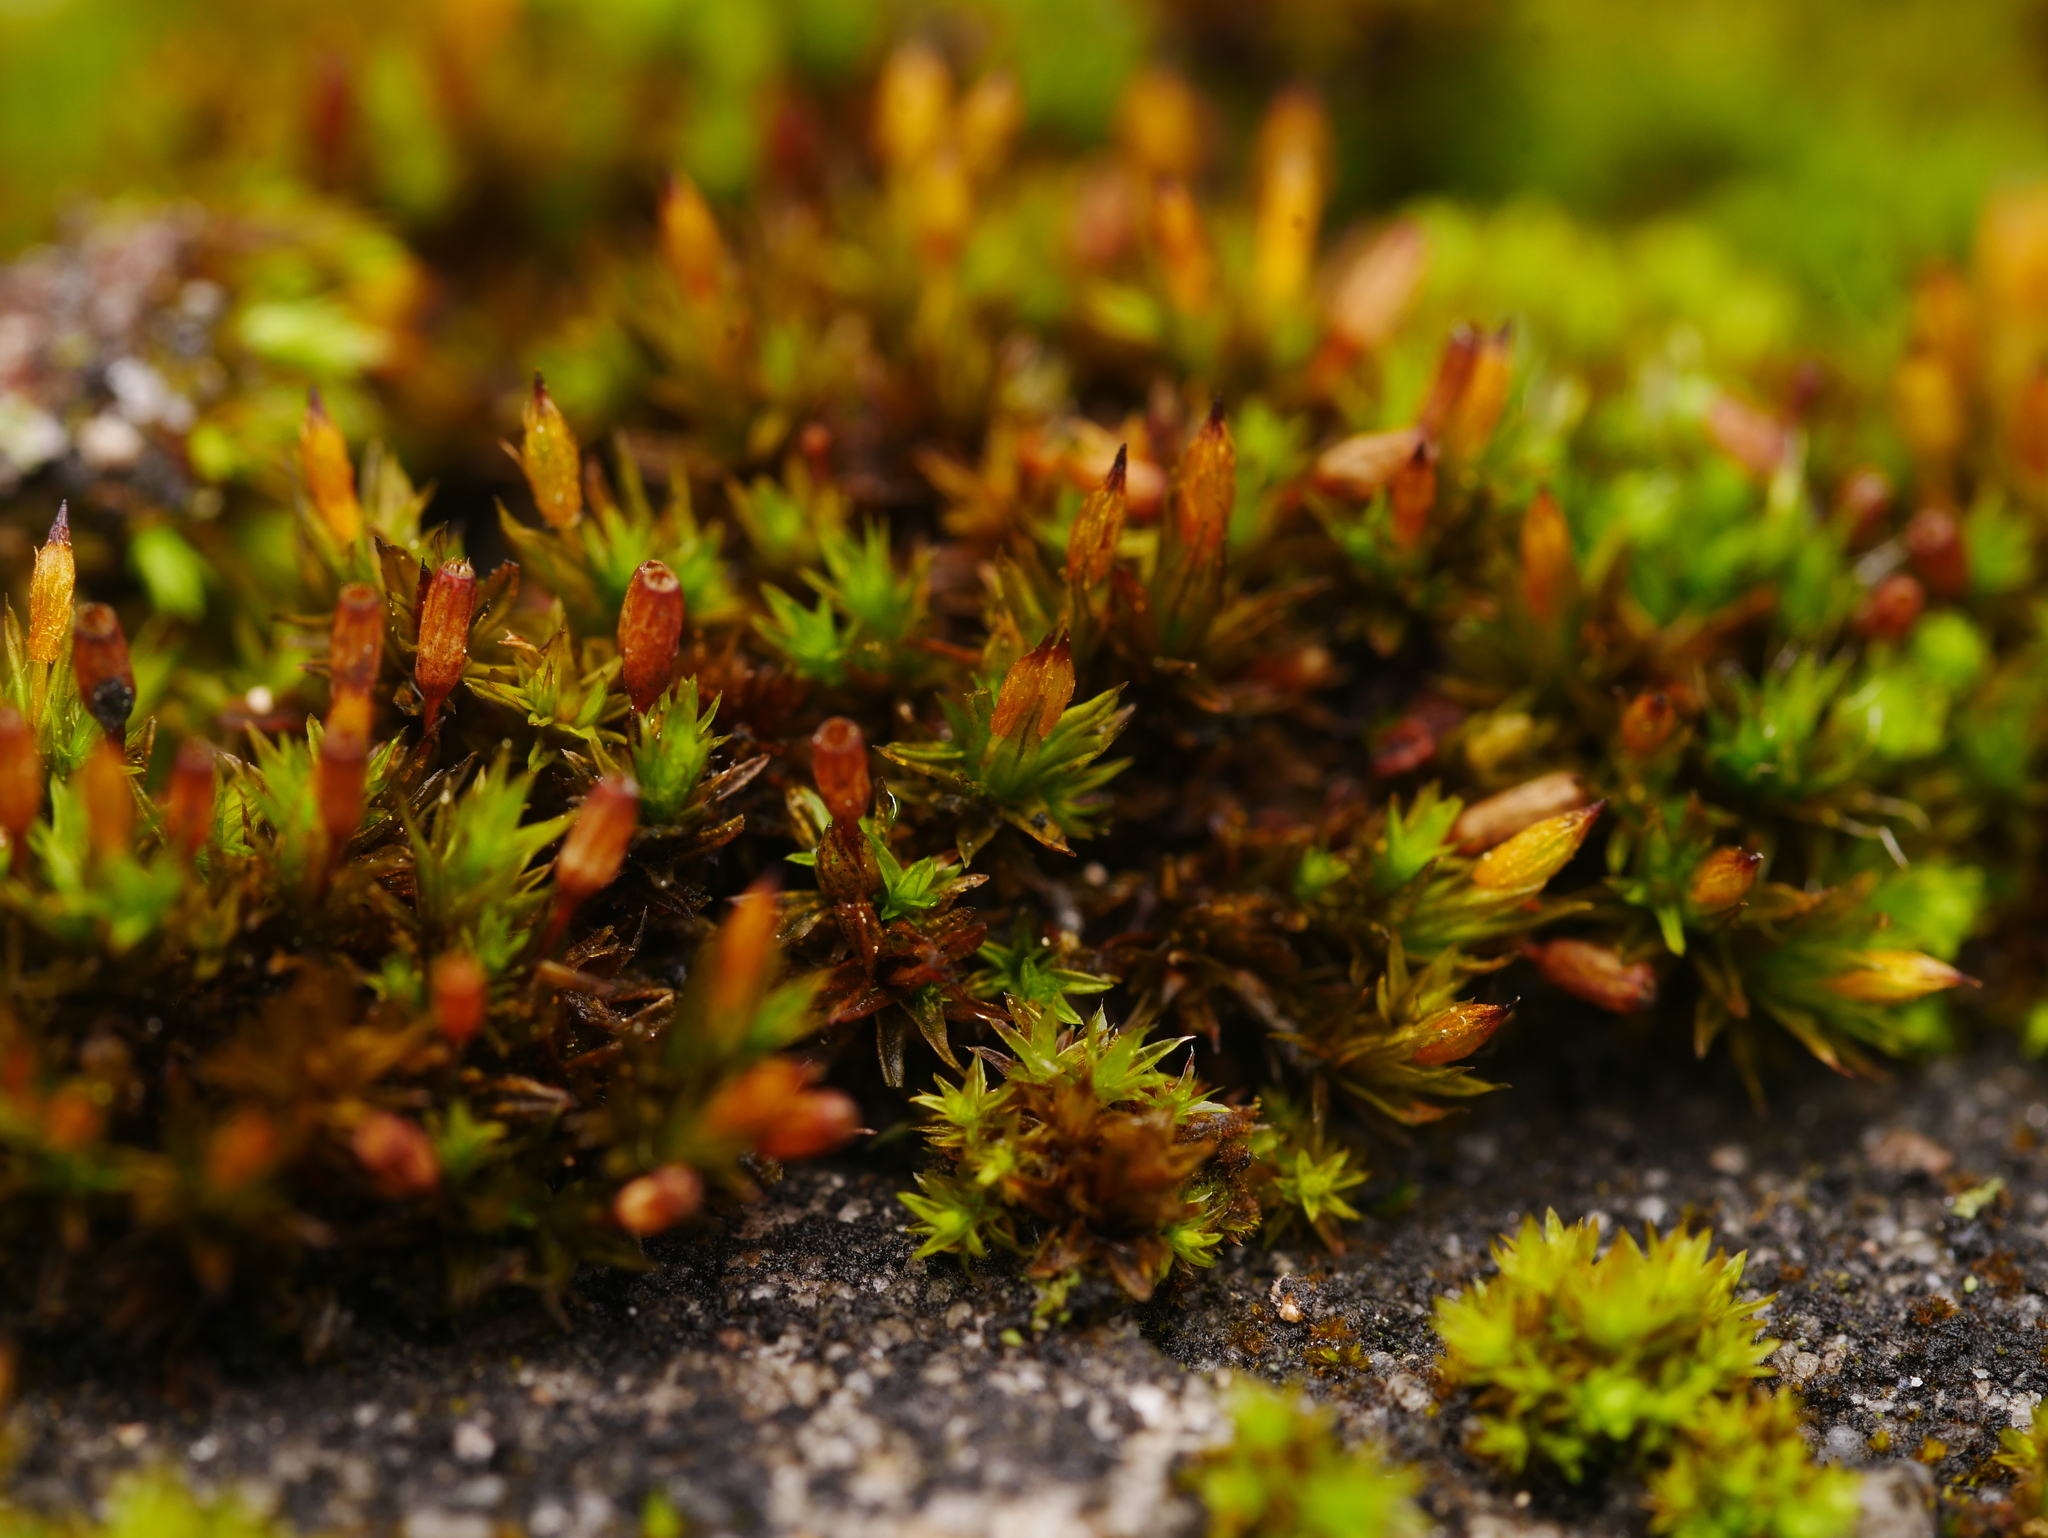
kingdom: Plantae
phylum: Bryophyta
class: Bryopsida
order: Orthotrichales
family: Orthotrichaceae
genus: Orthotrichum
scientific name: Orthotrichum anomalum
